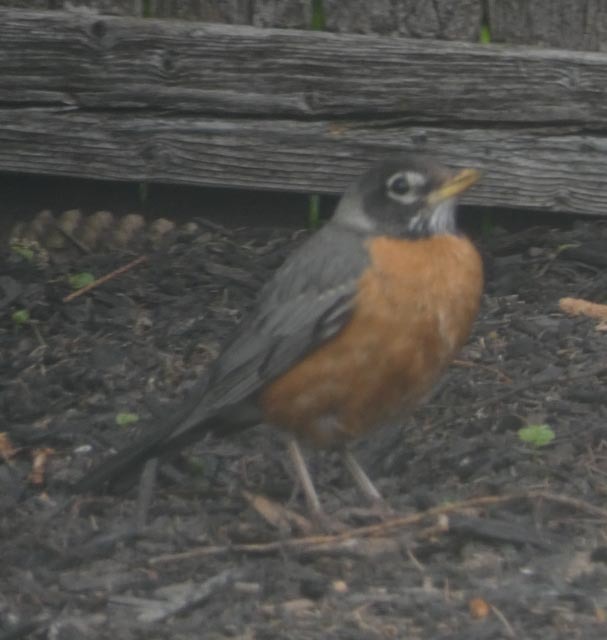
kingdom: Animalia
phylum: Chordata
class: Aves
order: Passeriformes
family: Turdidae
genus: Turdus
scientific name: Turdus migratorius
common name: American robin
